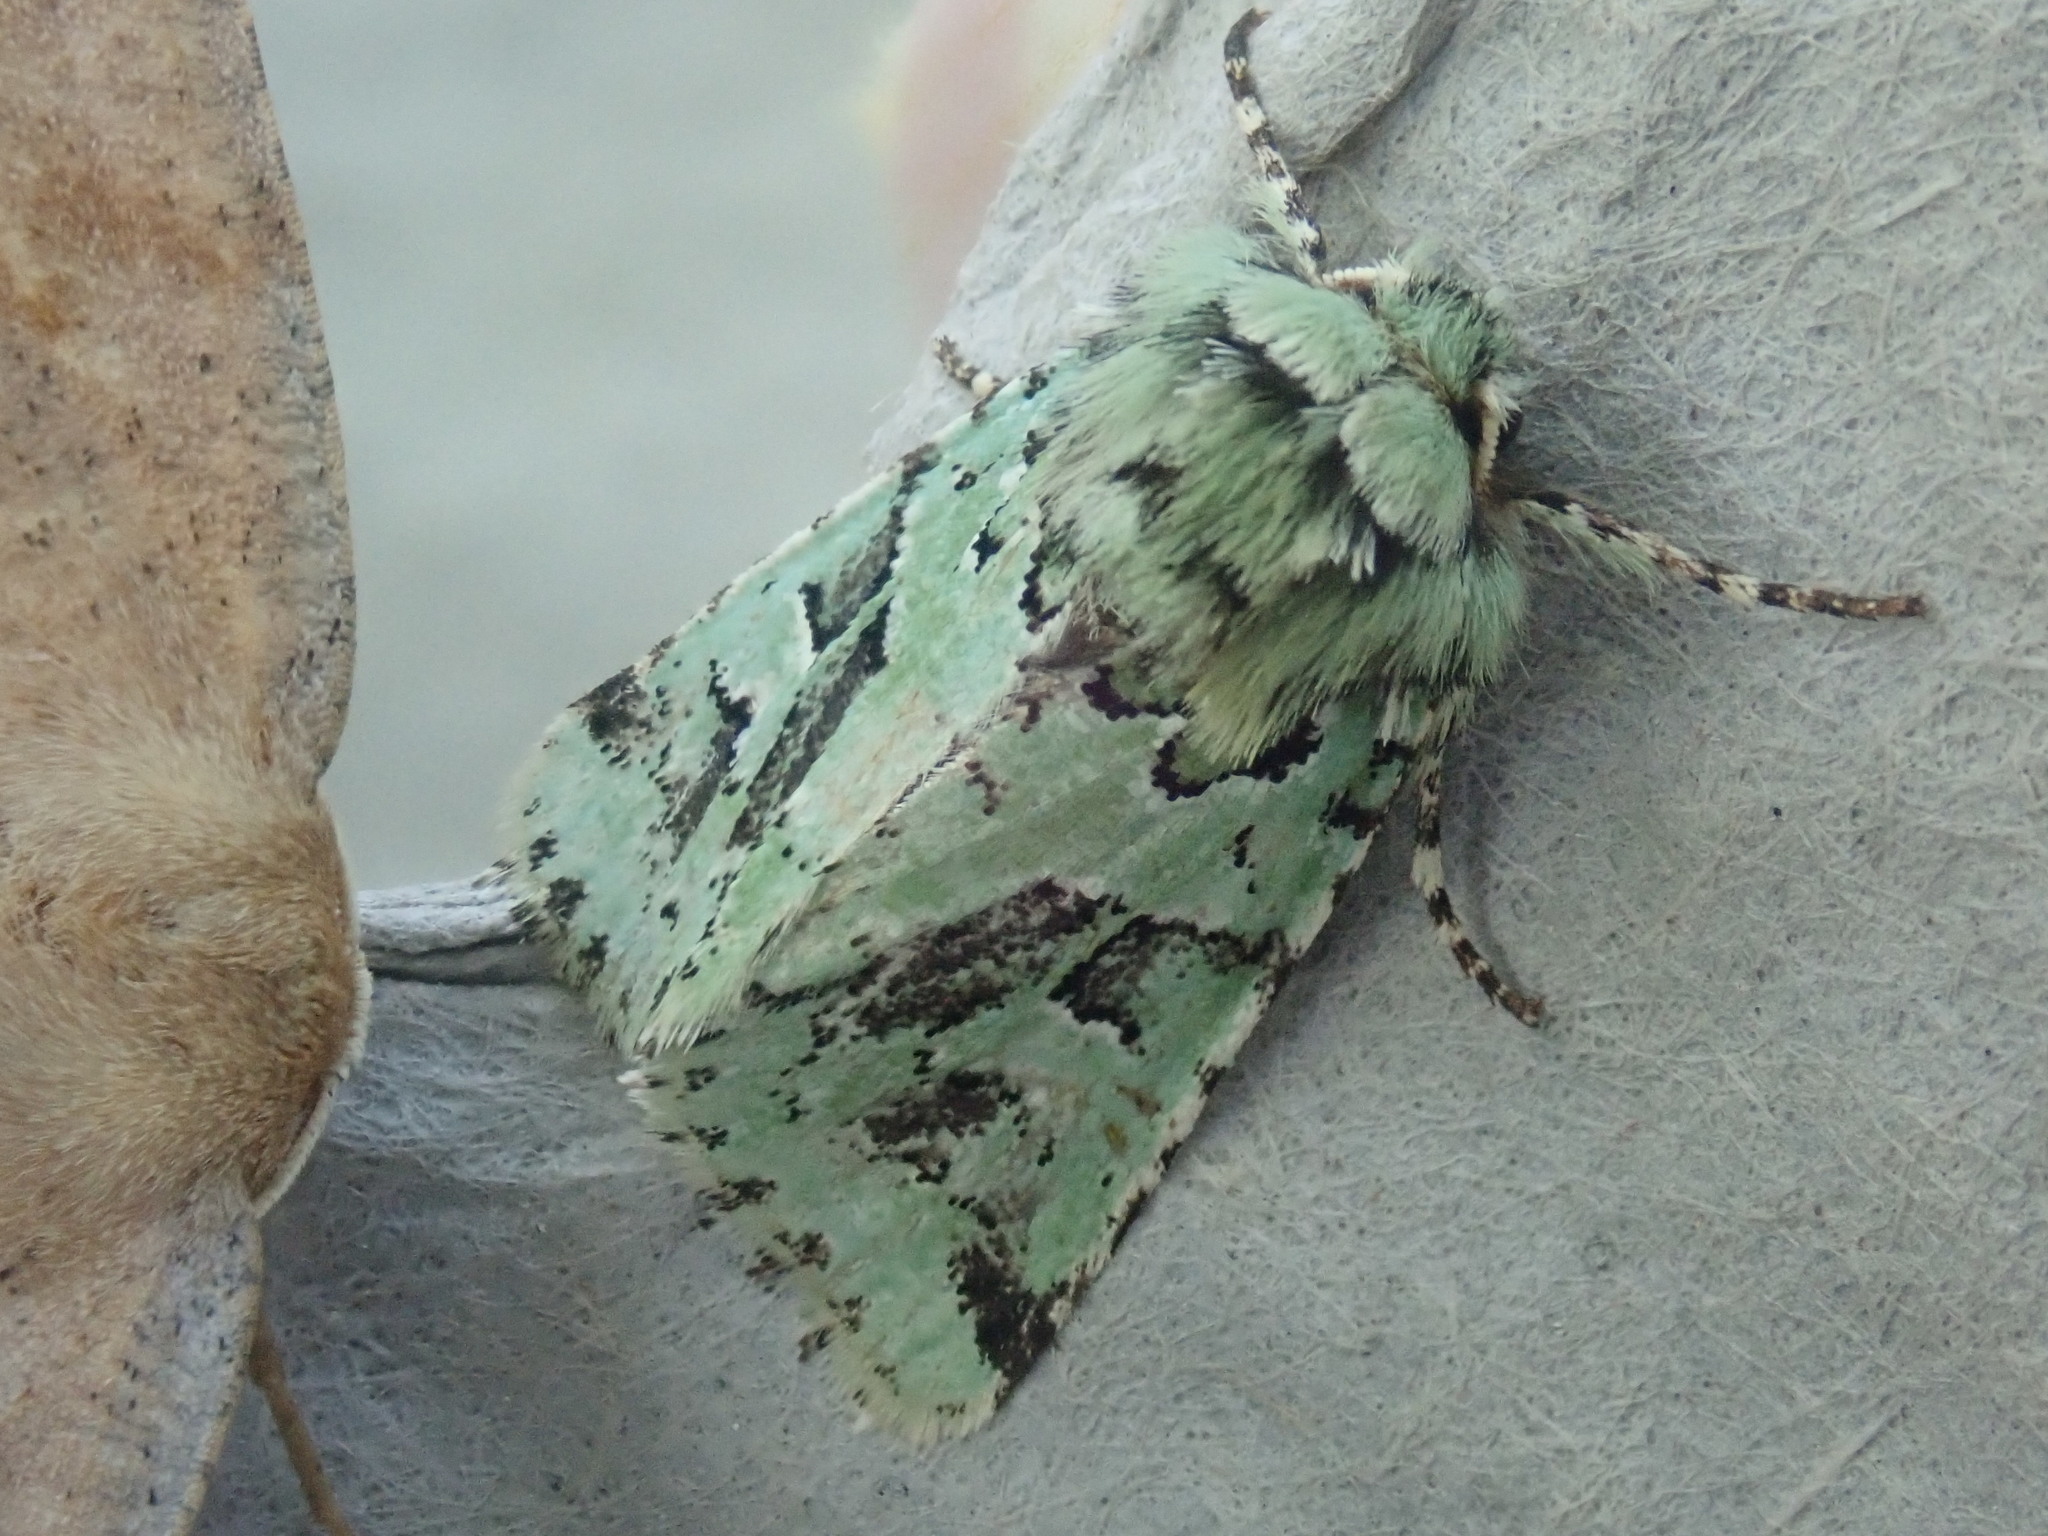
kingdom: Animalia
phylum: Arthropoda
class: Insecta
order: Lepidoptera
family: Noctuidae
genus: Feralia
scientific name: Feralia comstocki
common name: Comstock's sallow
